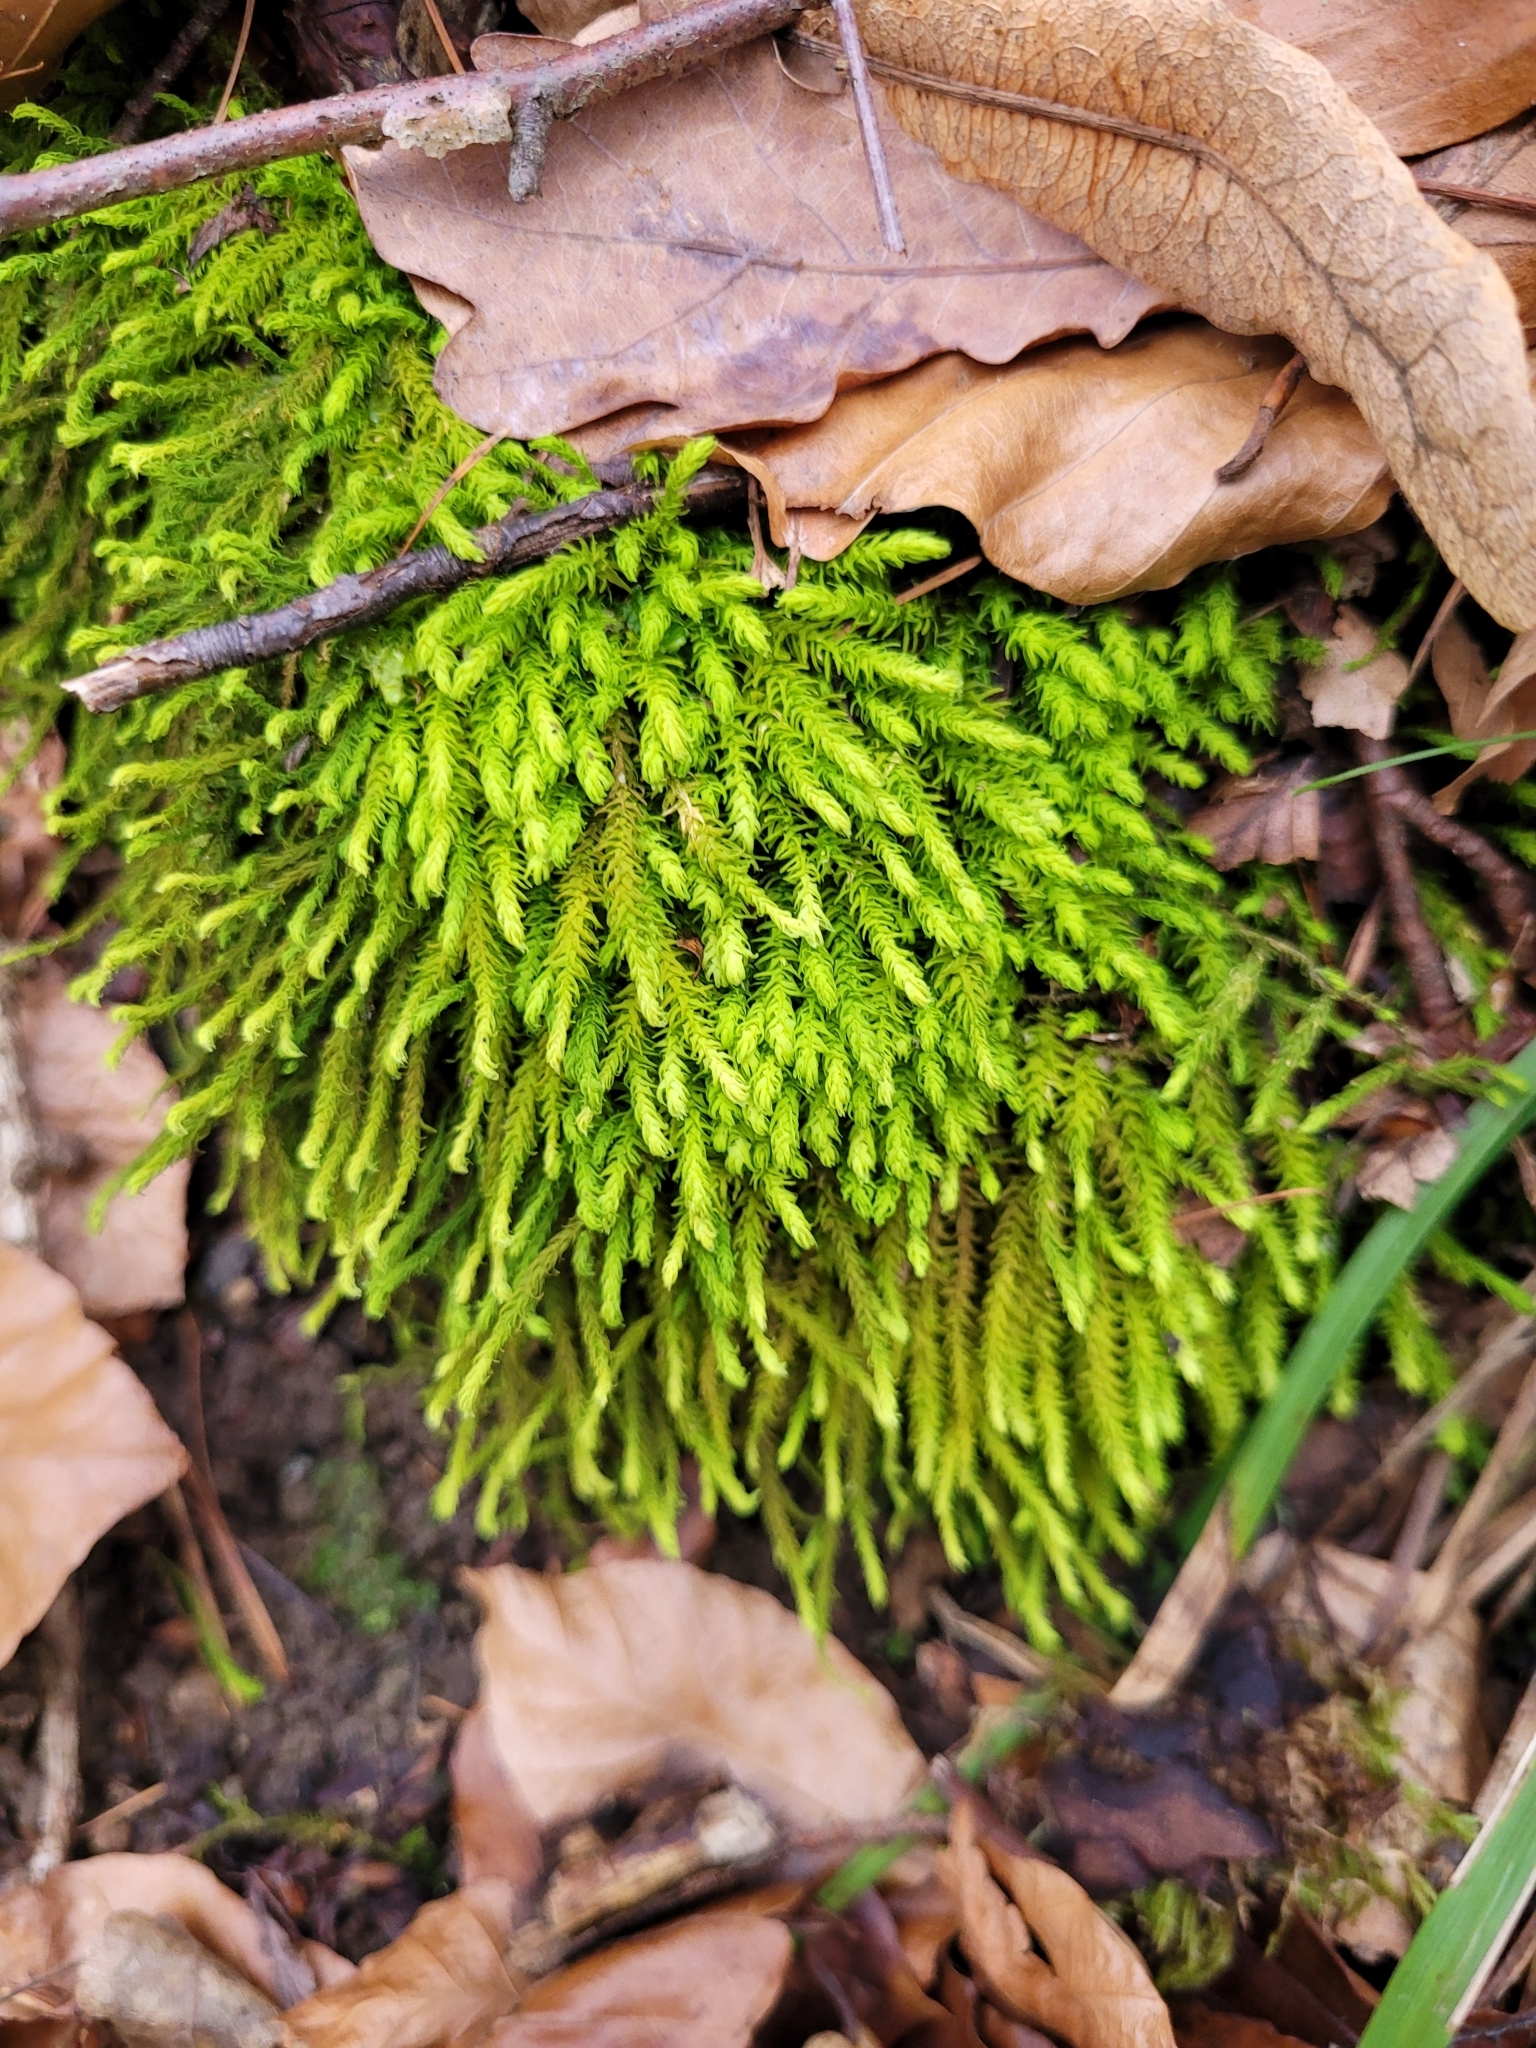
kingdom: Plantae
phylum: Bryophyta
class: Bryopsida
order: Hypnales
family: Anomodontaceae
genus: Anomodon
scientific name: Anomodon viticulosus
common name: Tall anomodon
